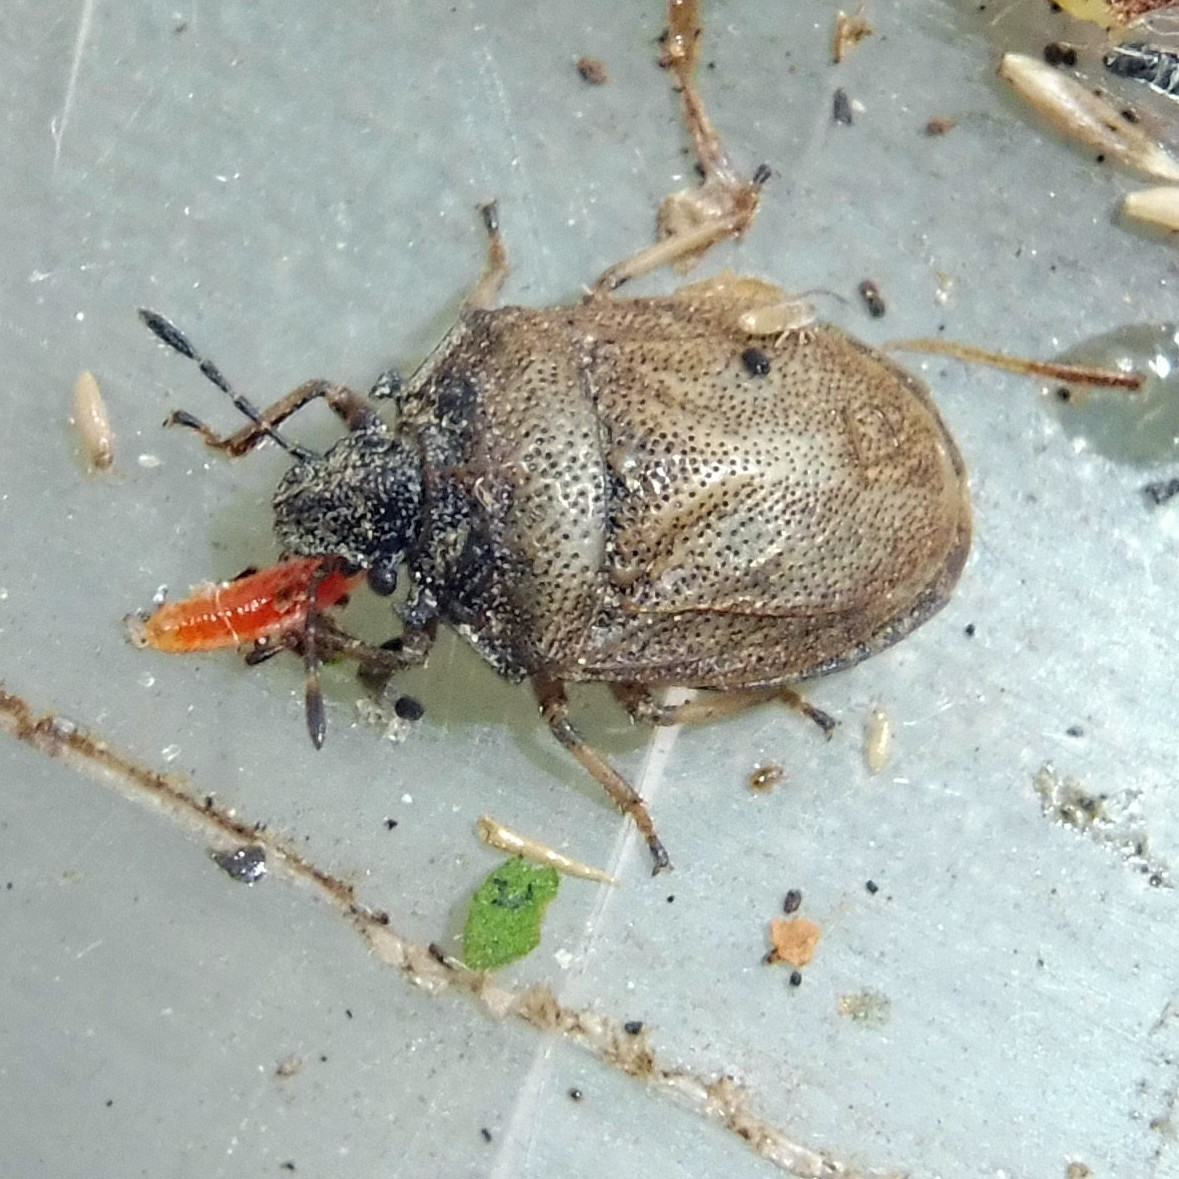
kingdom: Animalia
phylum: Arthropoda
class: Insecta
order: Hemiptera
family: Pentatomidae
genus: Podops
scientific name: Podops inunctus
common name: Turtle bug
